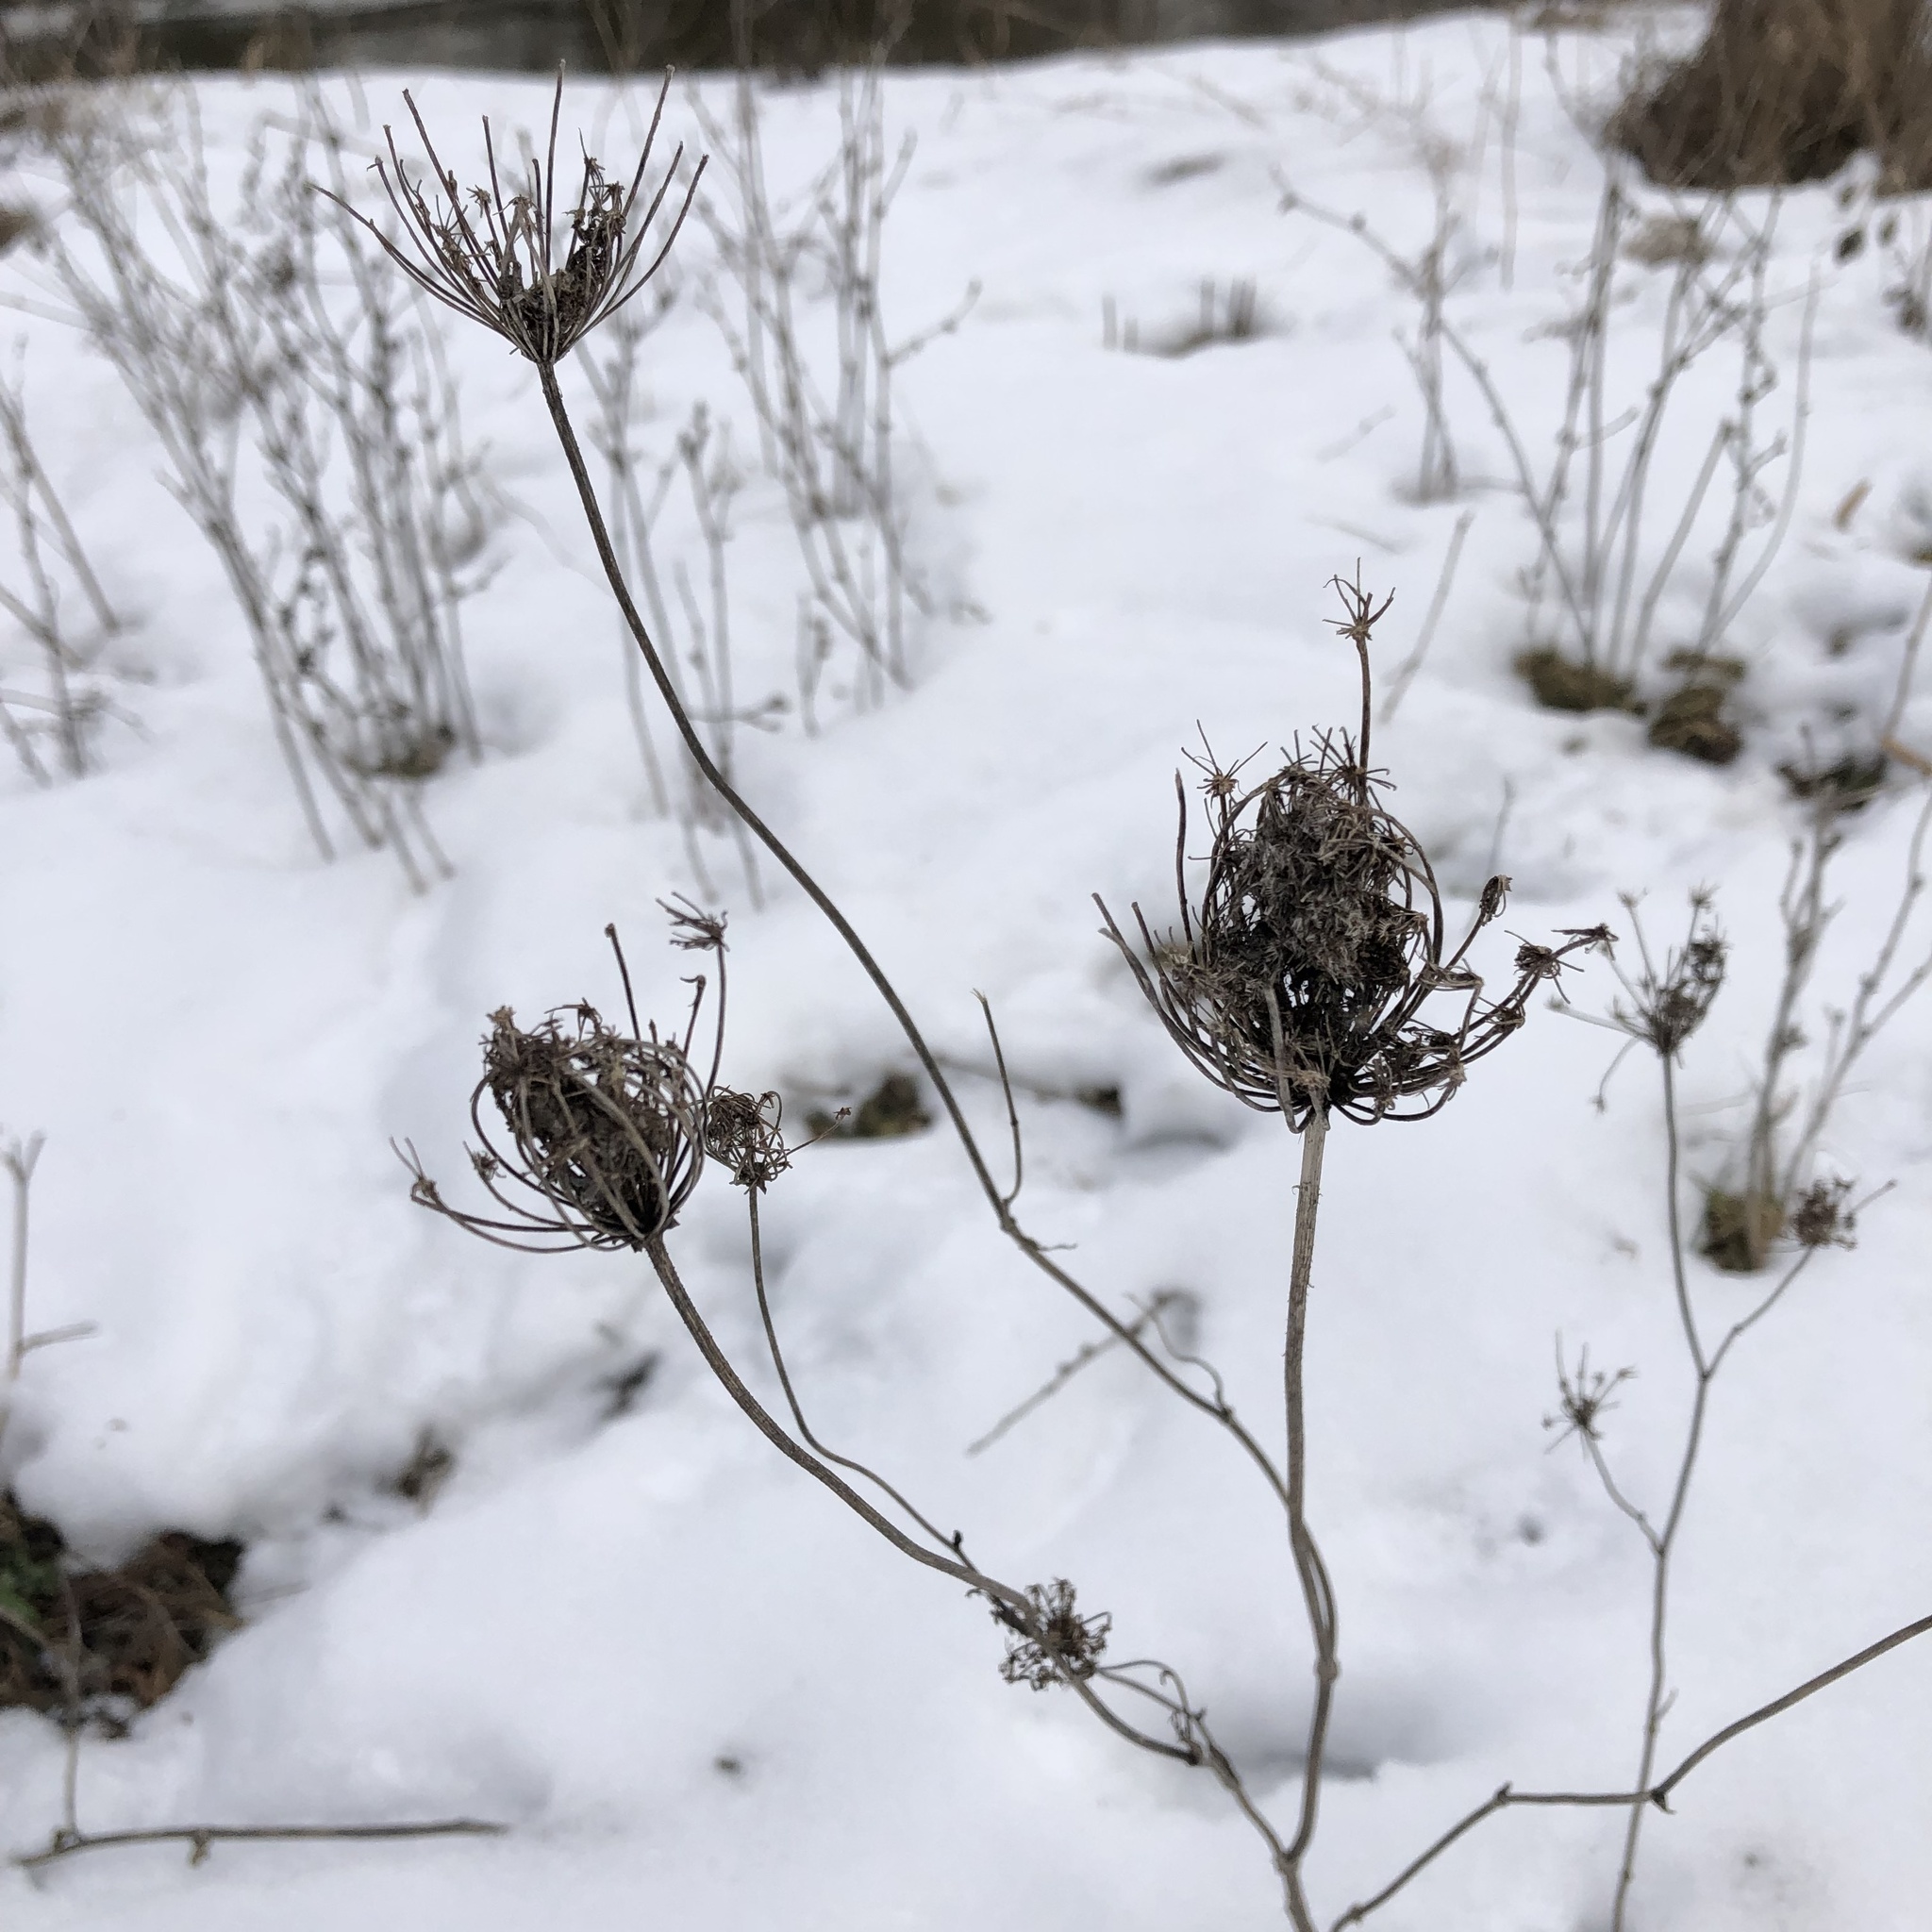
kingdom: Plantae
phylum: Tracheophyta
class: Magnoliopsida
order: Apiales
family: Apiaceae
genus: Daucus
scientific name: Daucus carota
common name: Wild carrot
